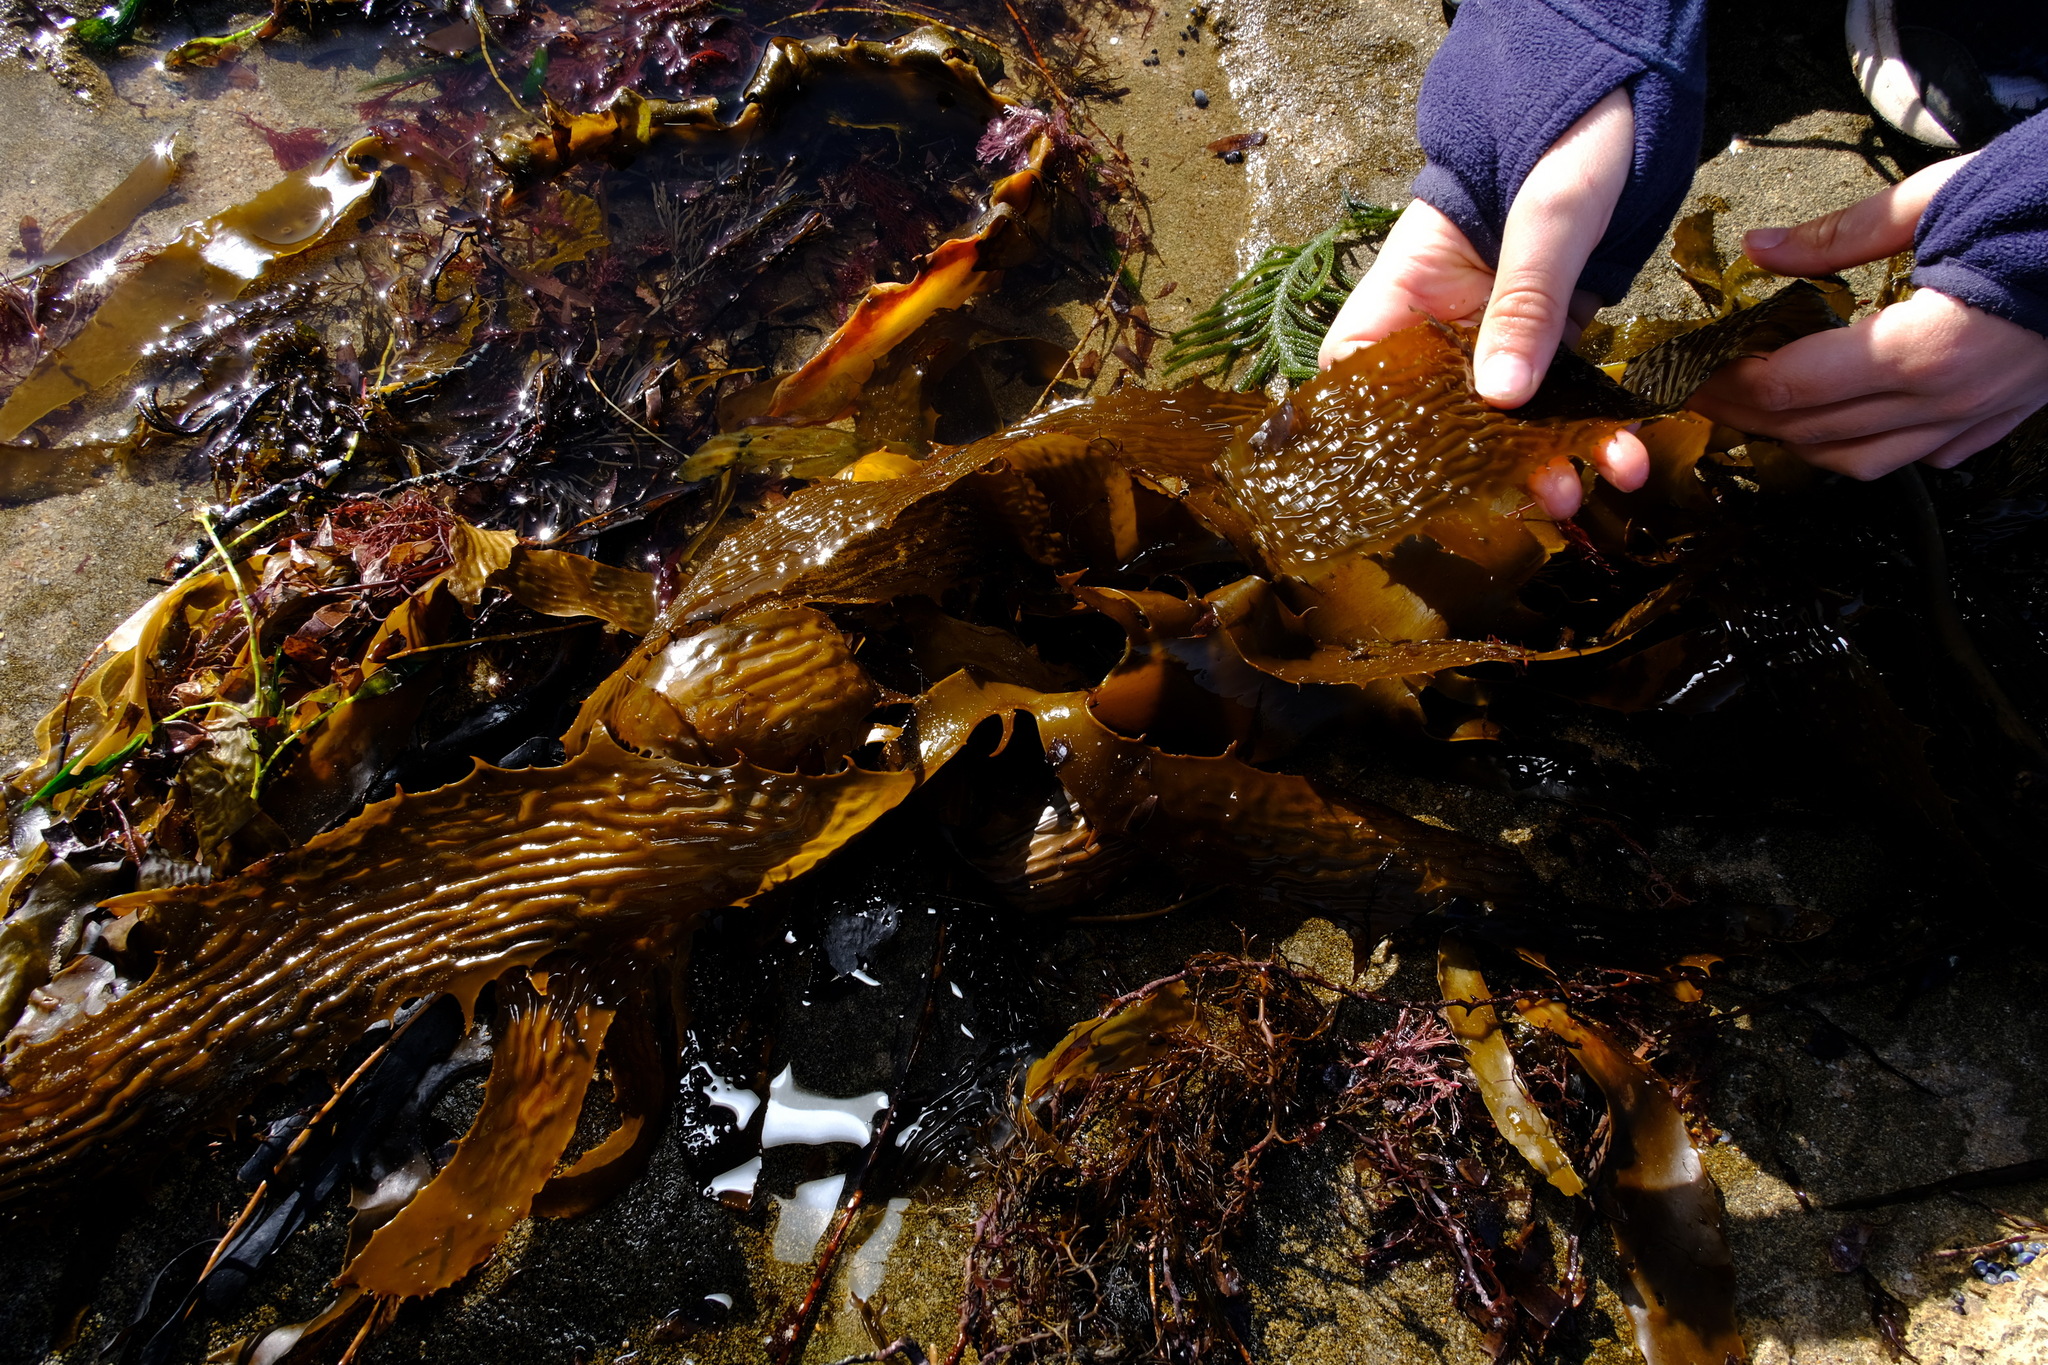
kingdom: Chromista
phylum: Ochrophyta
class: Phaeophyceae
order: Laminariales
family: Lessoniaceae
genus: Ecklonia
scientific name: Ecklonia radiata
